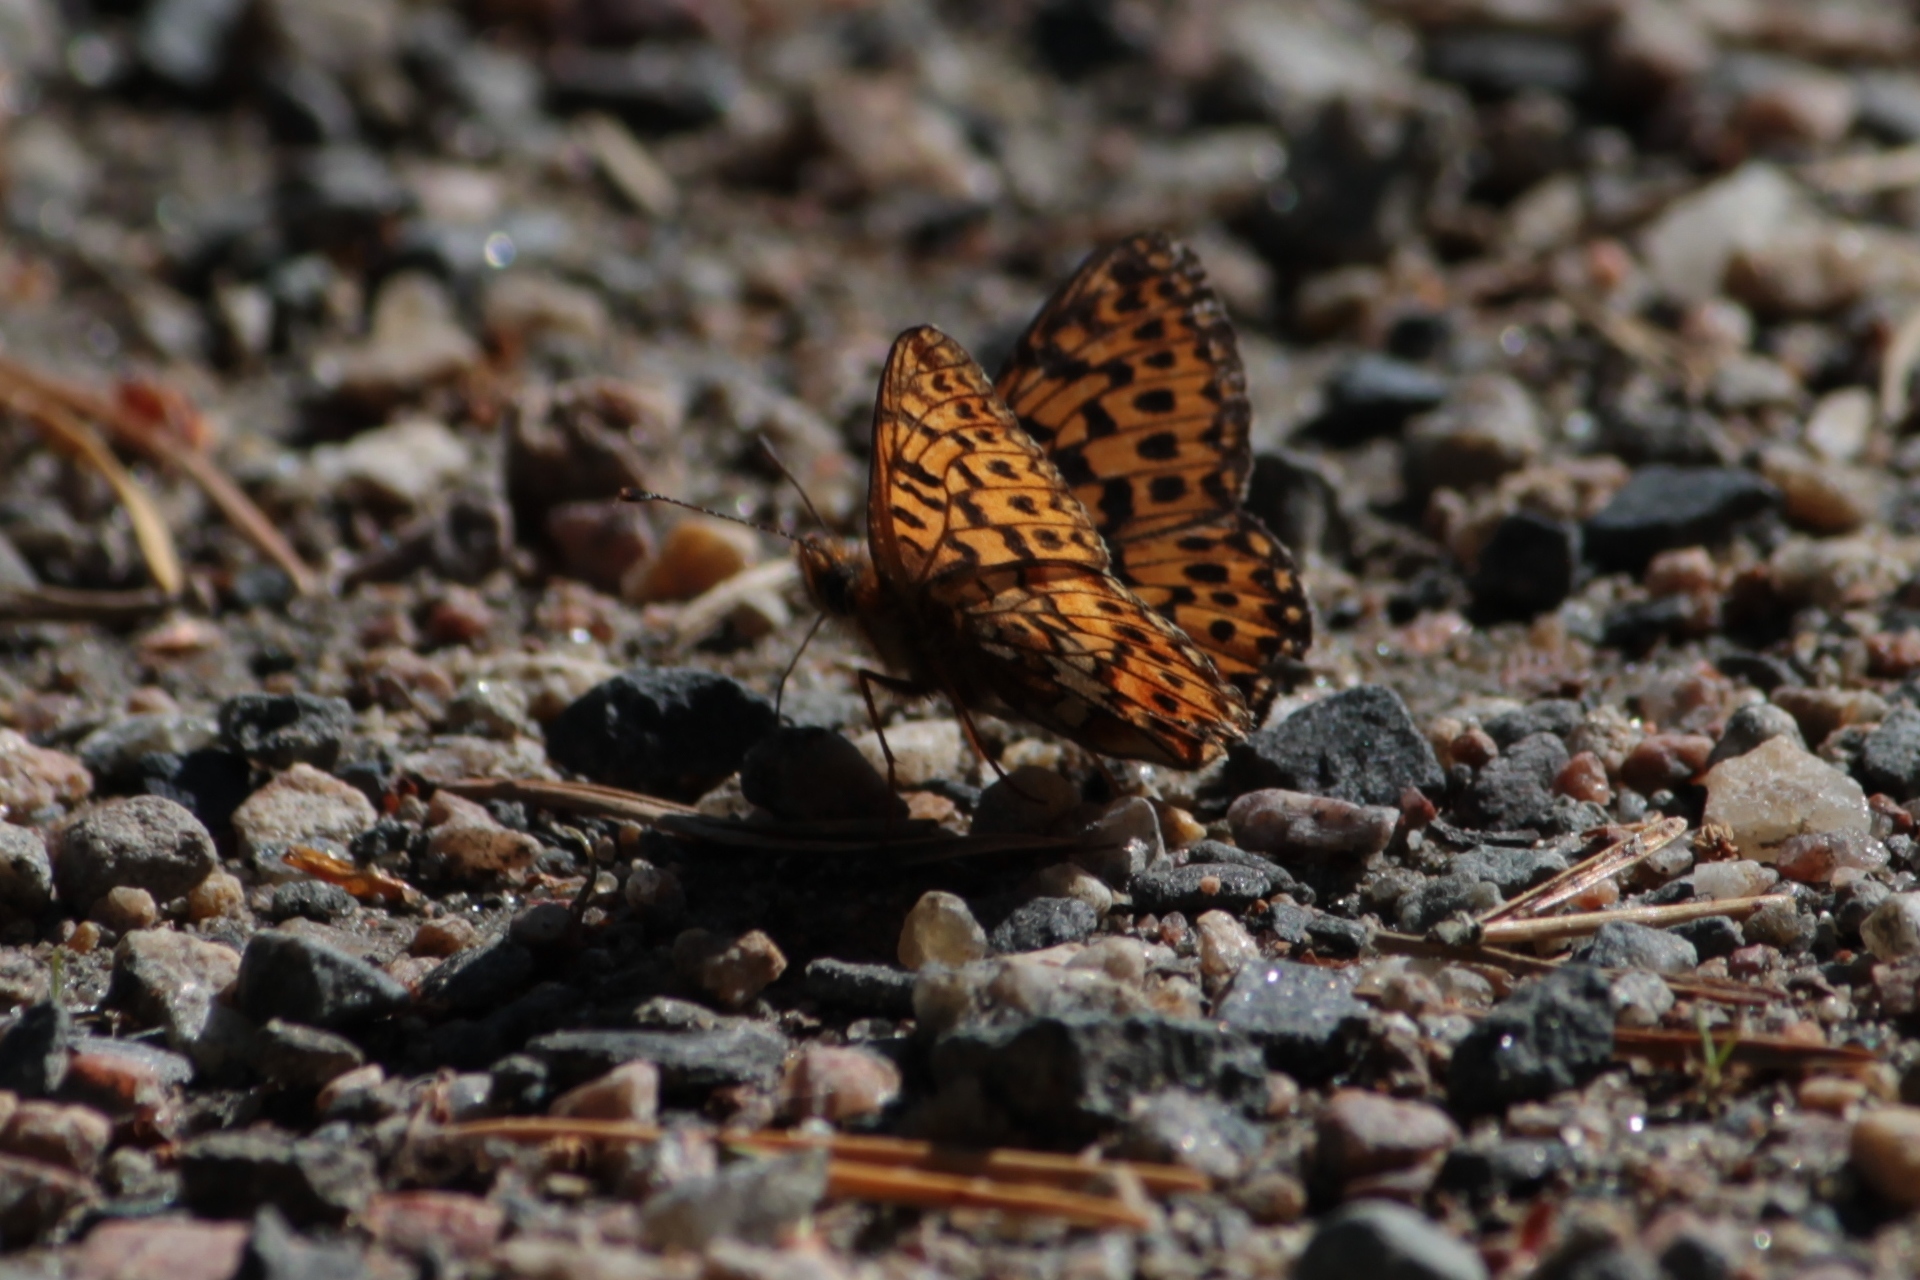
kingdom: Animalia
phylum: Arthropoda
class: Insecta
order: Lepidoptera
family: Nymphalidae
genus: Clossiana
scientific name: Clossiana euphrosyne
